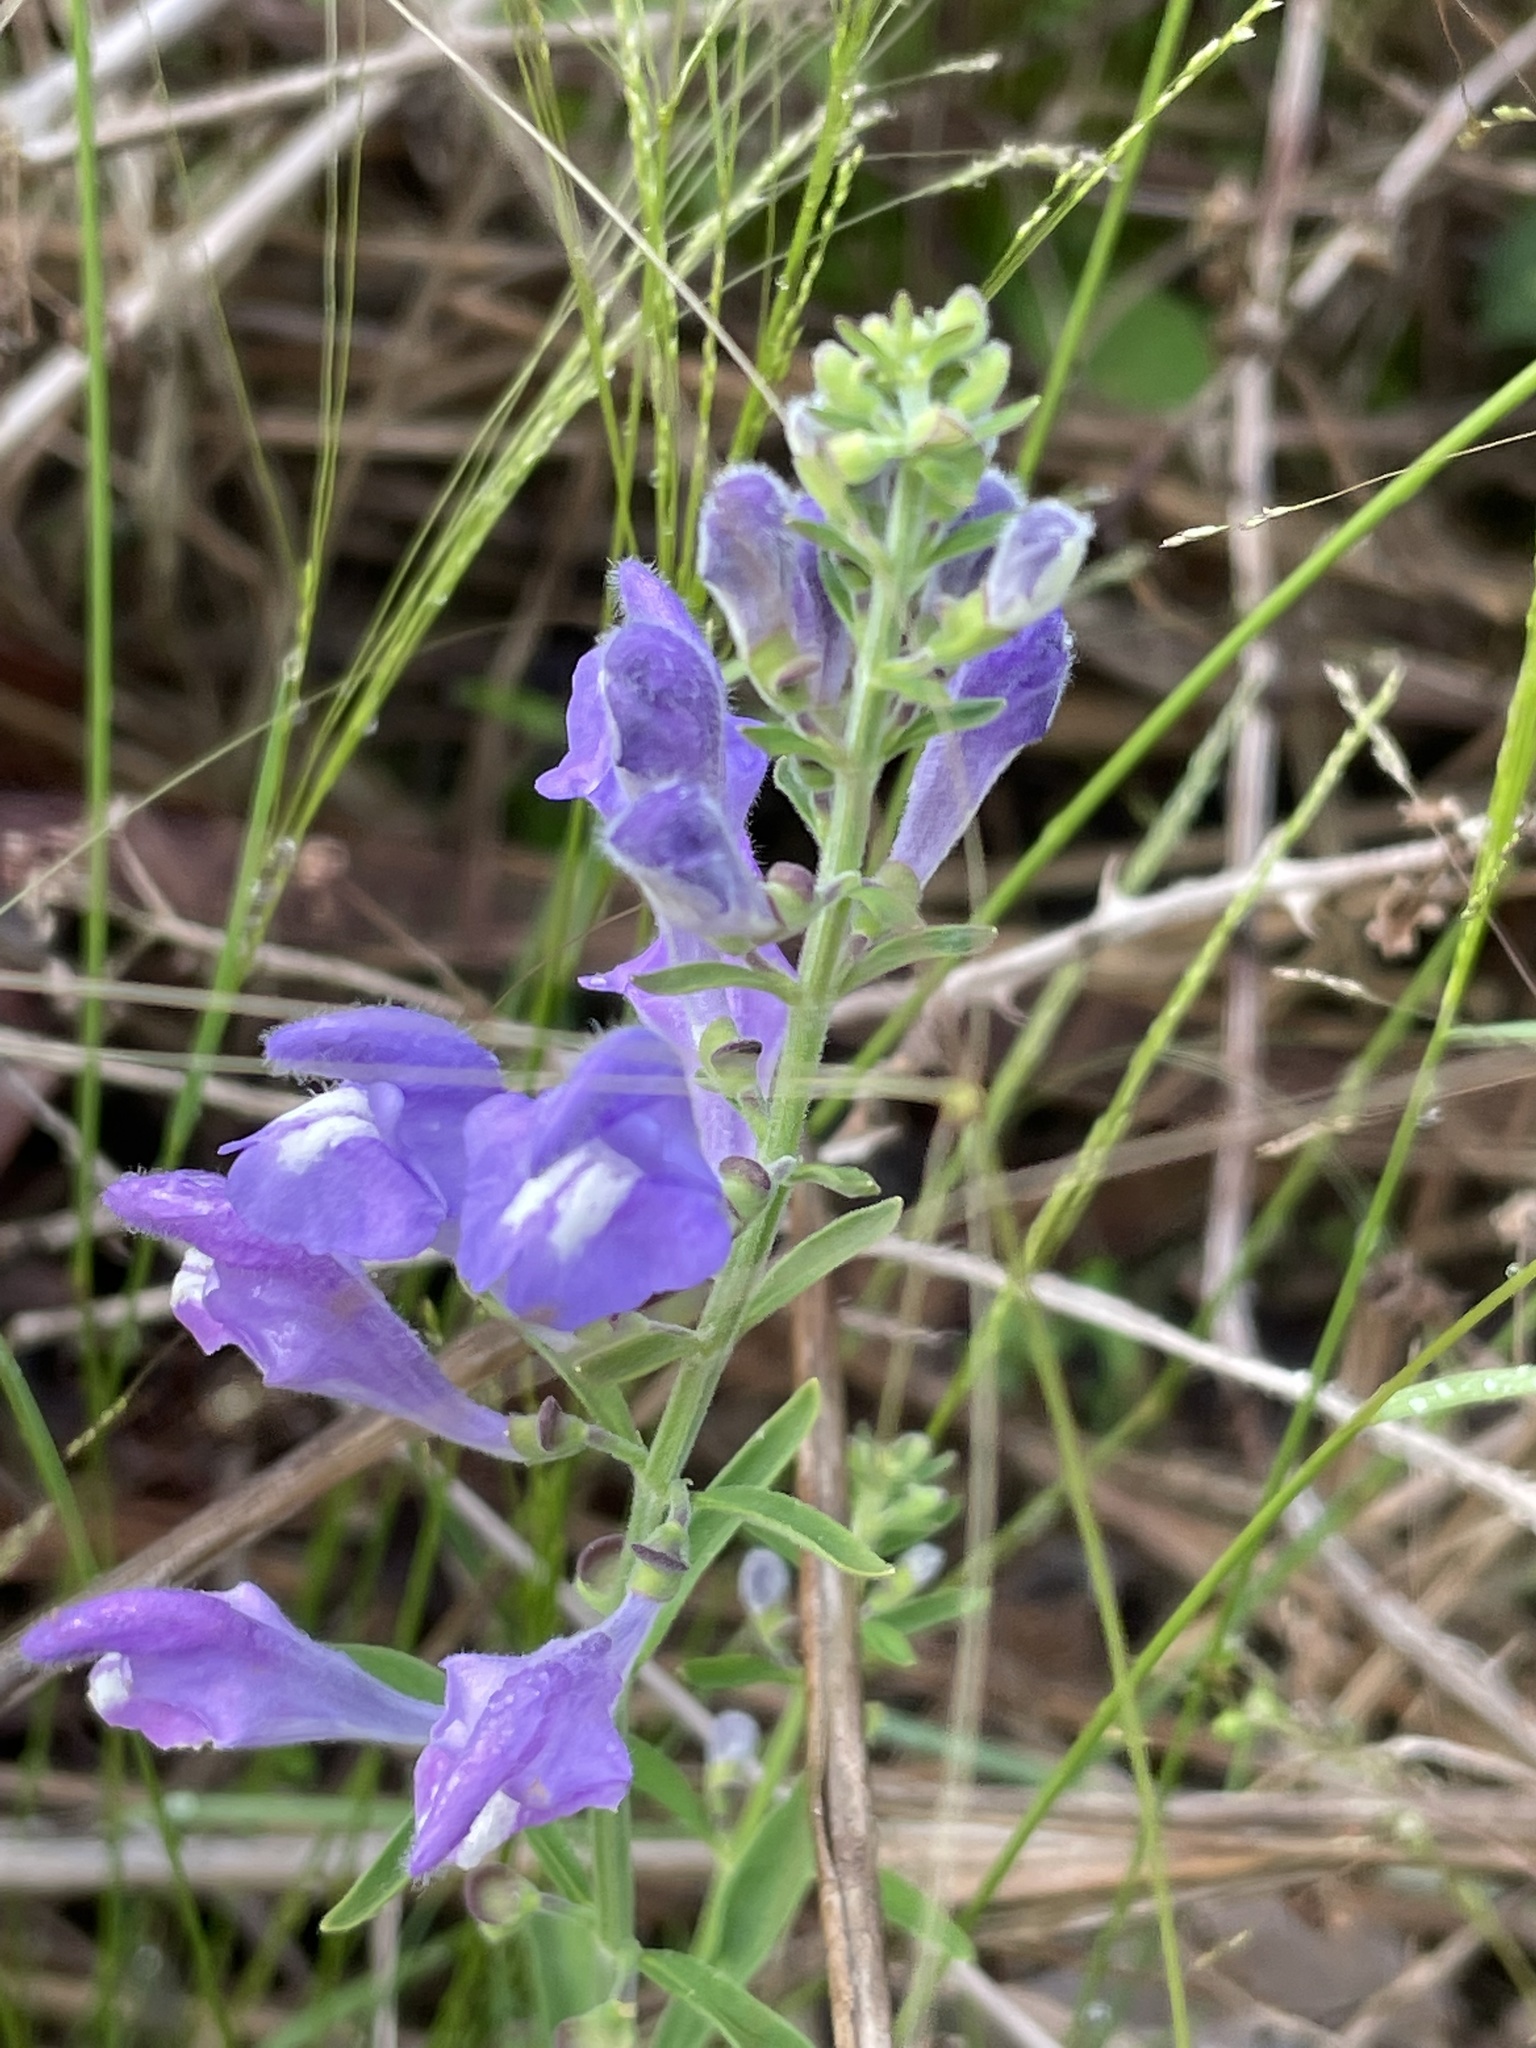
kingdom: Plantae
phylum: Tracheophyta
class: Magnoliopsida
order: Lamiales
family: Lamiaceae
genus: Scutellaria
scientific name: Scutellaria integrifolia
